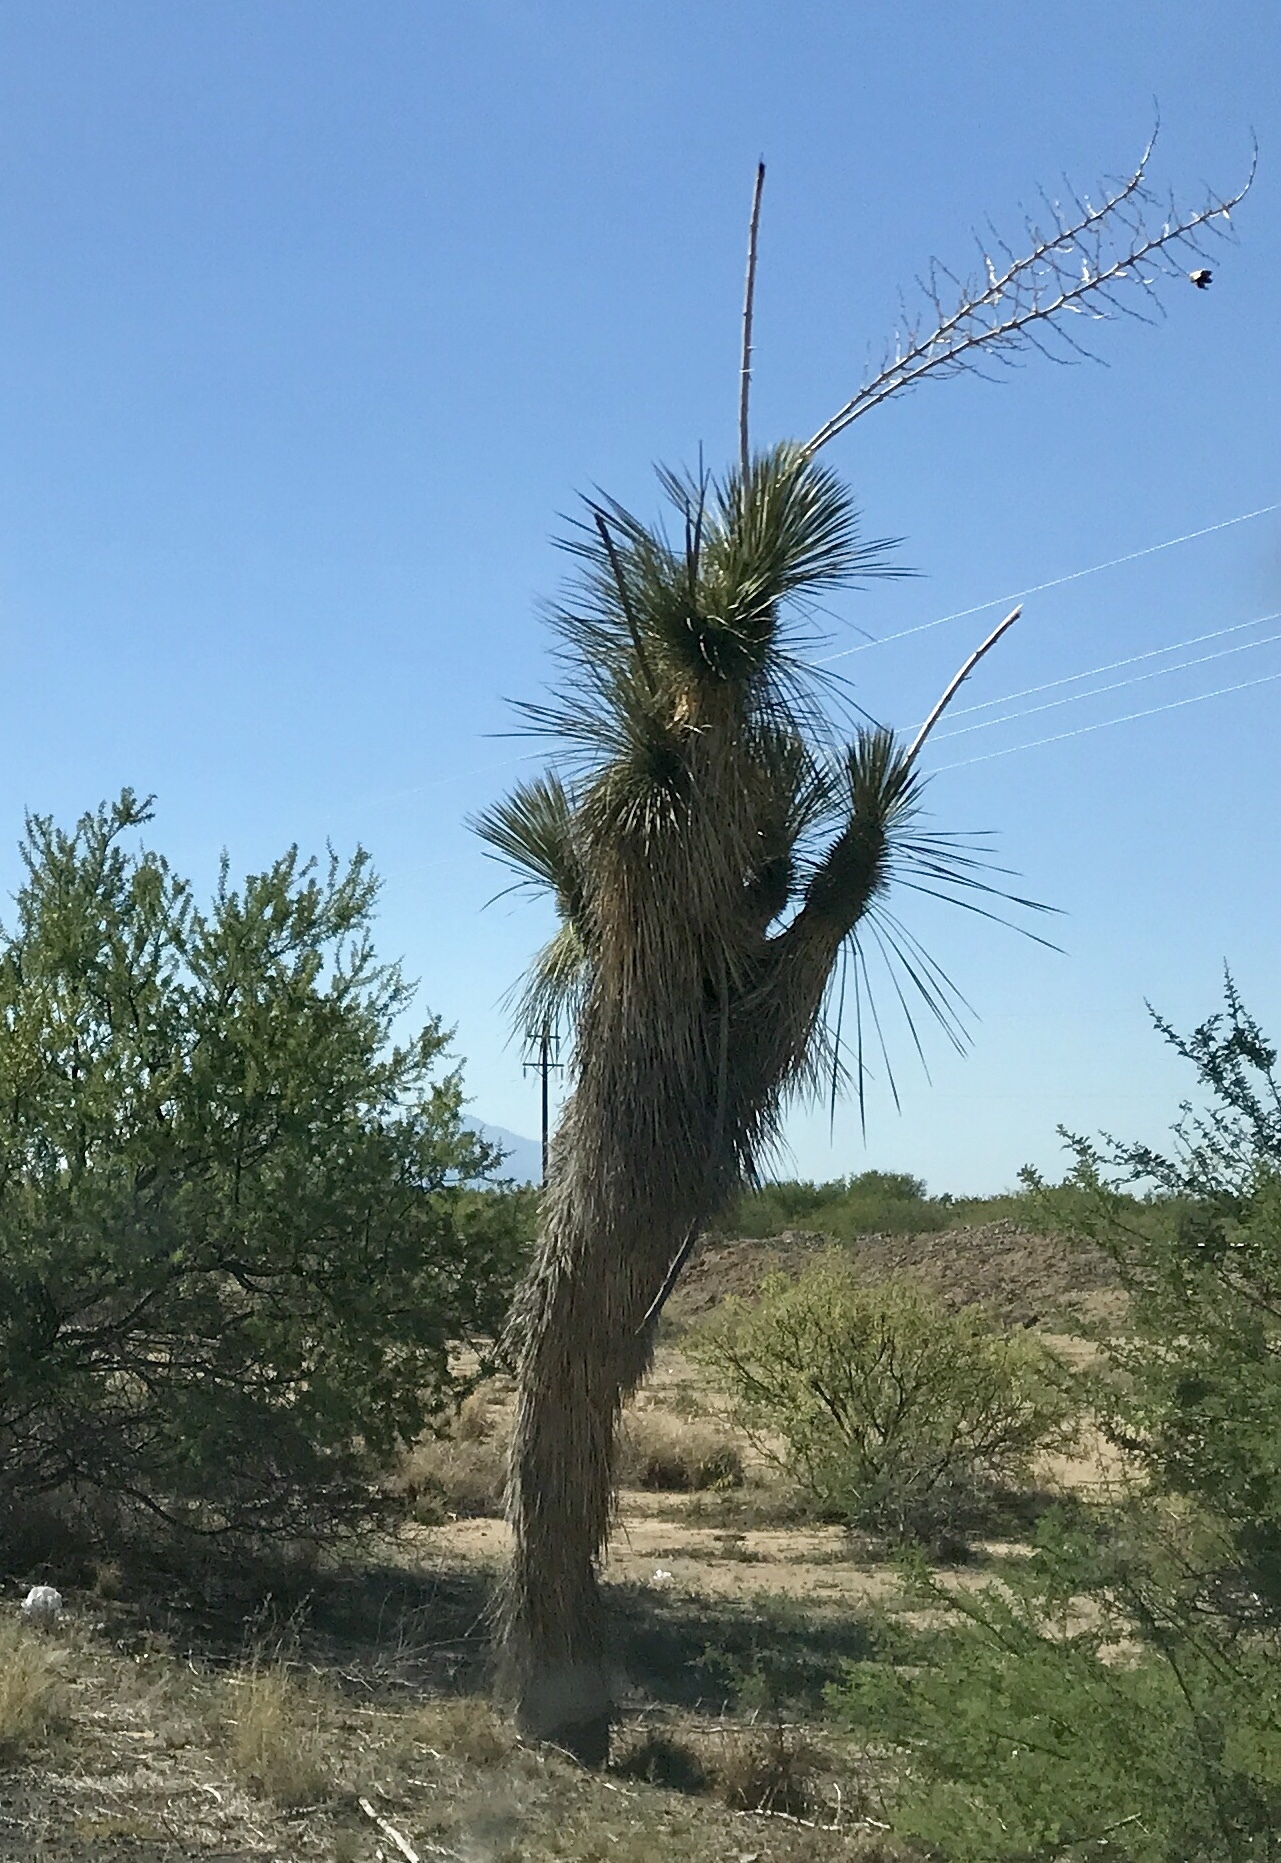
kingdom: Plantae
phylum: Tracheophyta
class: Liliopsida
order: Asparagales
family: Asparagaceae
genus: Yucca
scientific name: Yucca elata
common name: Palmella
